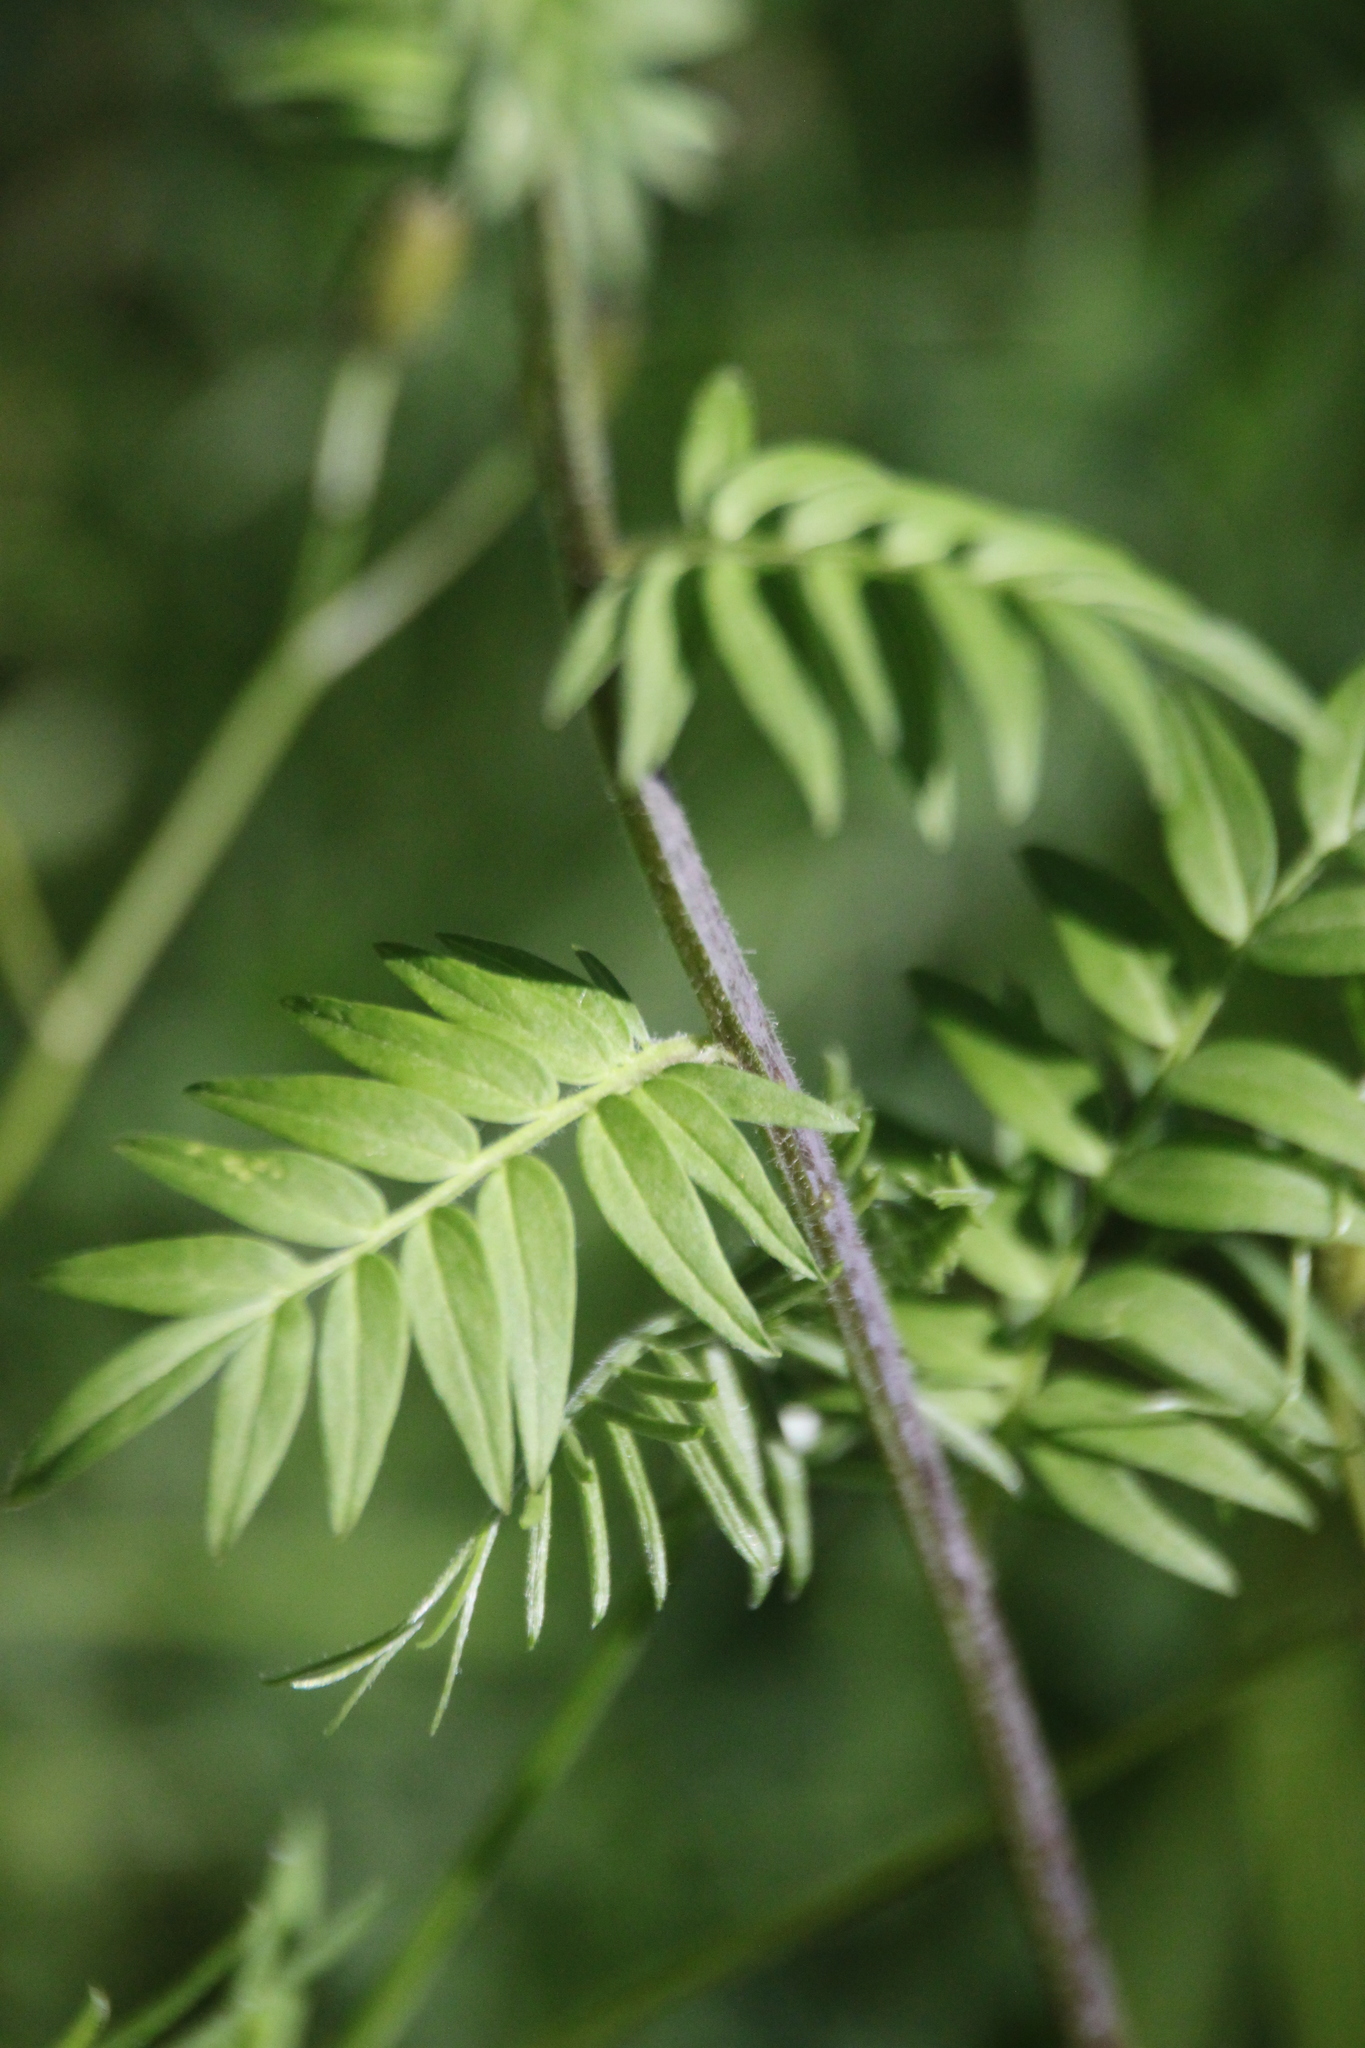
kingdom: Plantae
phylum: Tracheophyta
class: Magnoliopsida
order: Ericales
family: Polemoniaceae
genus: Polemonium
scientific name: Polemonium caeruleum
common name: Jacob's-ladder
